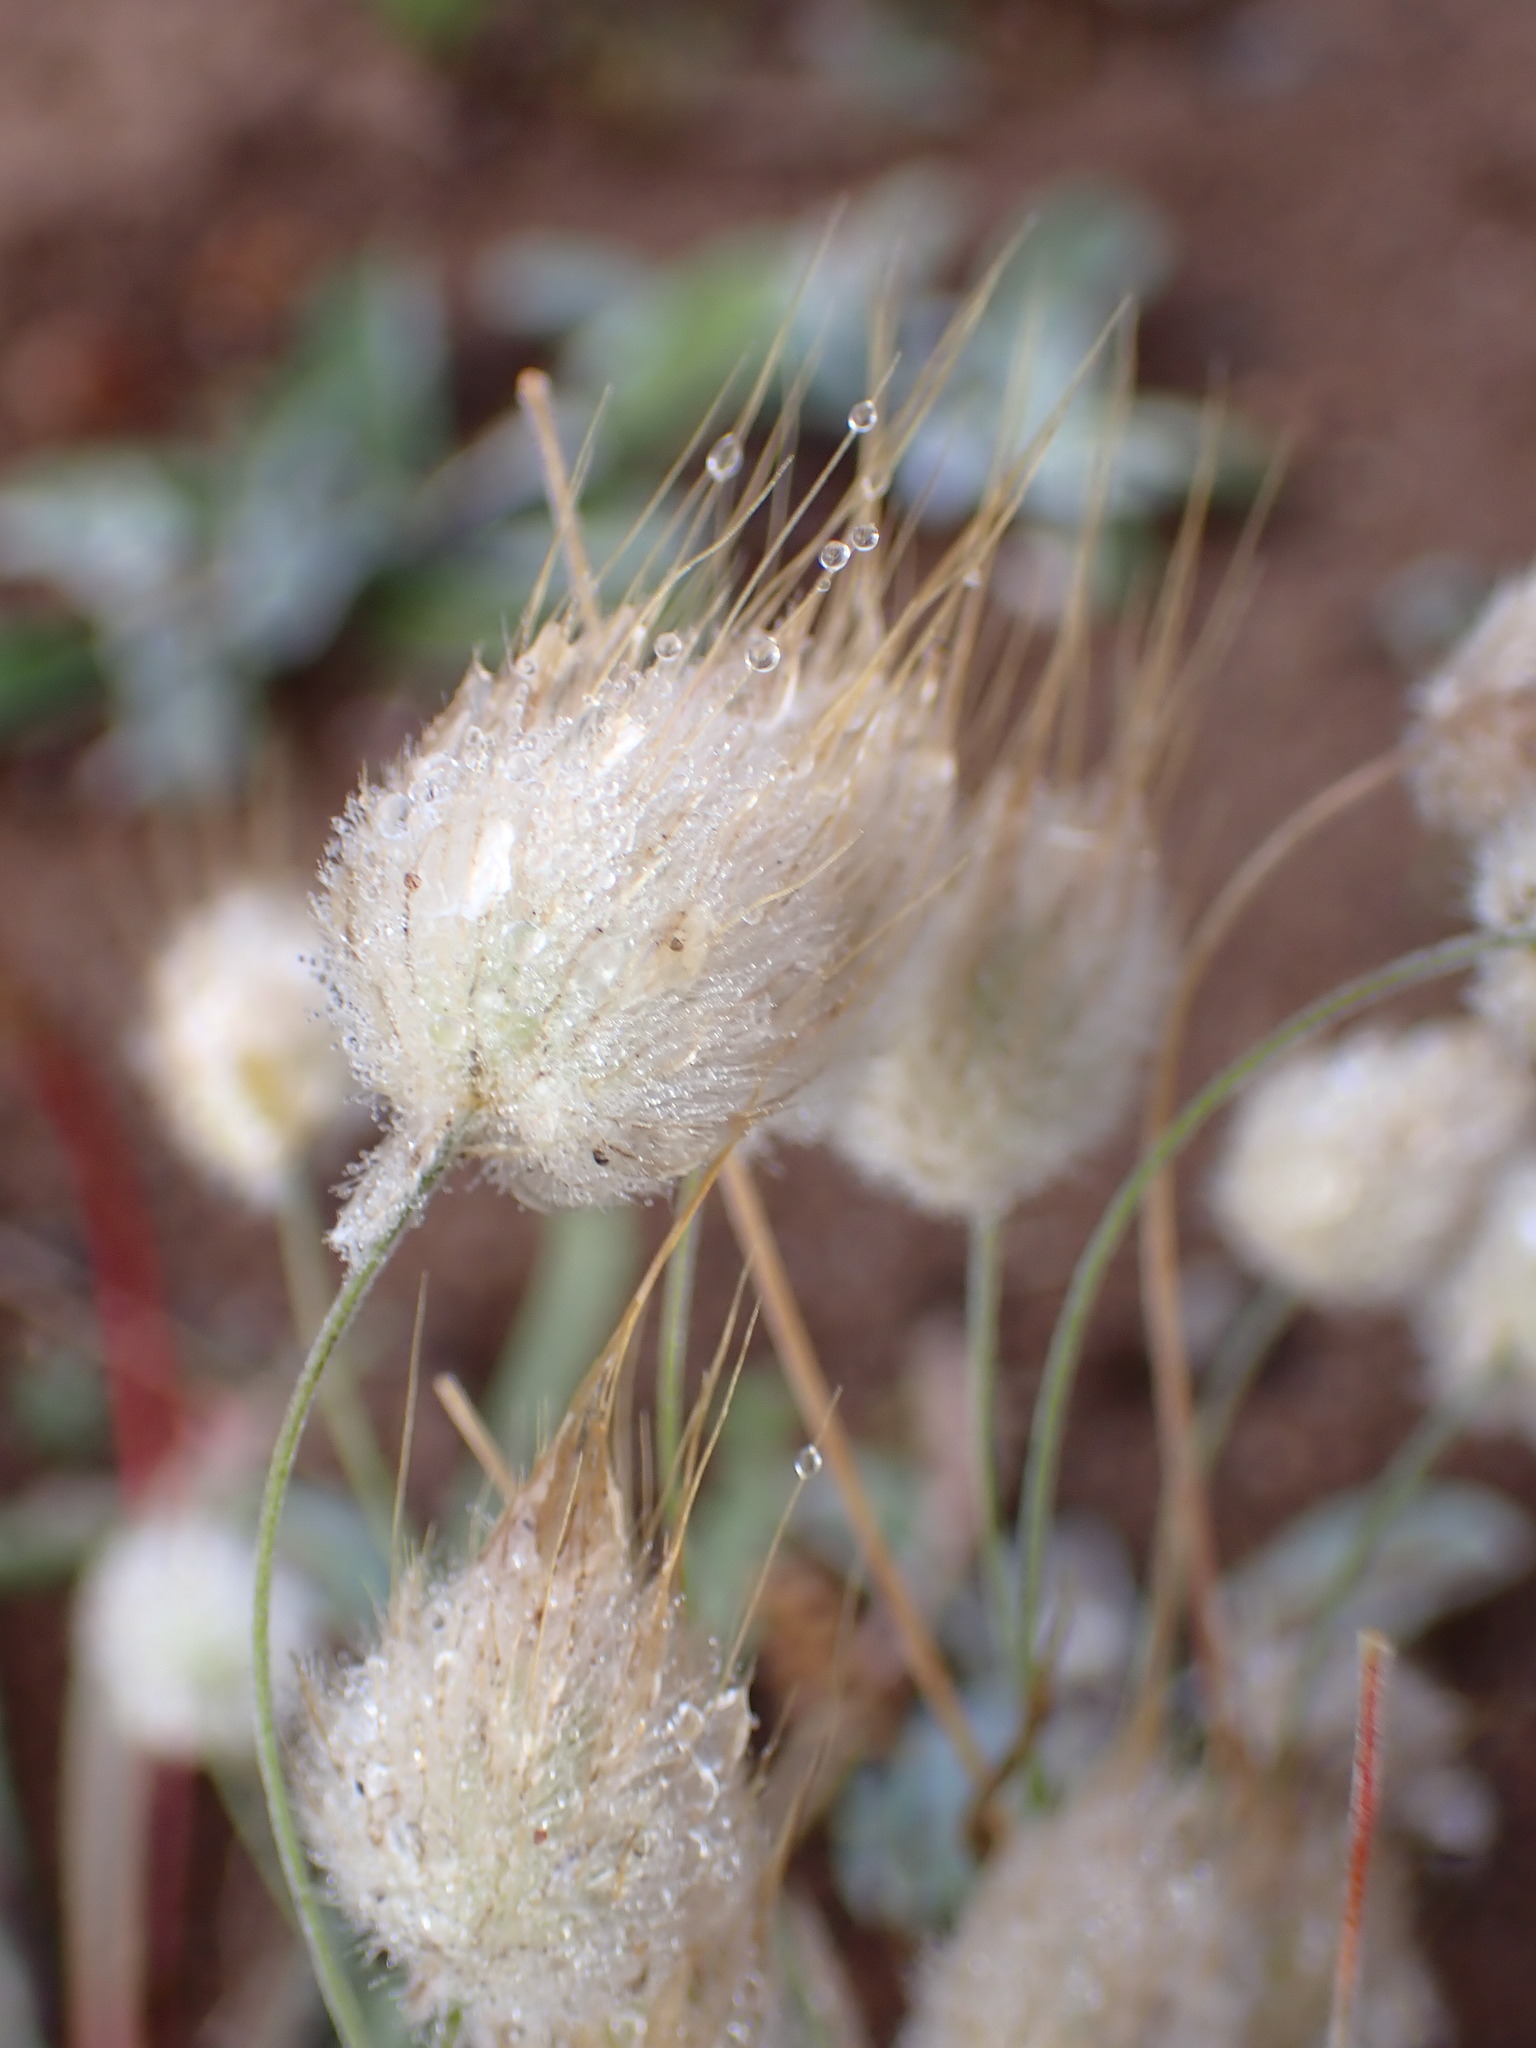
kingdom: Plantae
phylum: Tracheophyta
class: Liliopsida
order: Poales
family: Poaceae
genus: Lagurus
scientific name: Lagurus ovatus
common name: Hare's-tail
